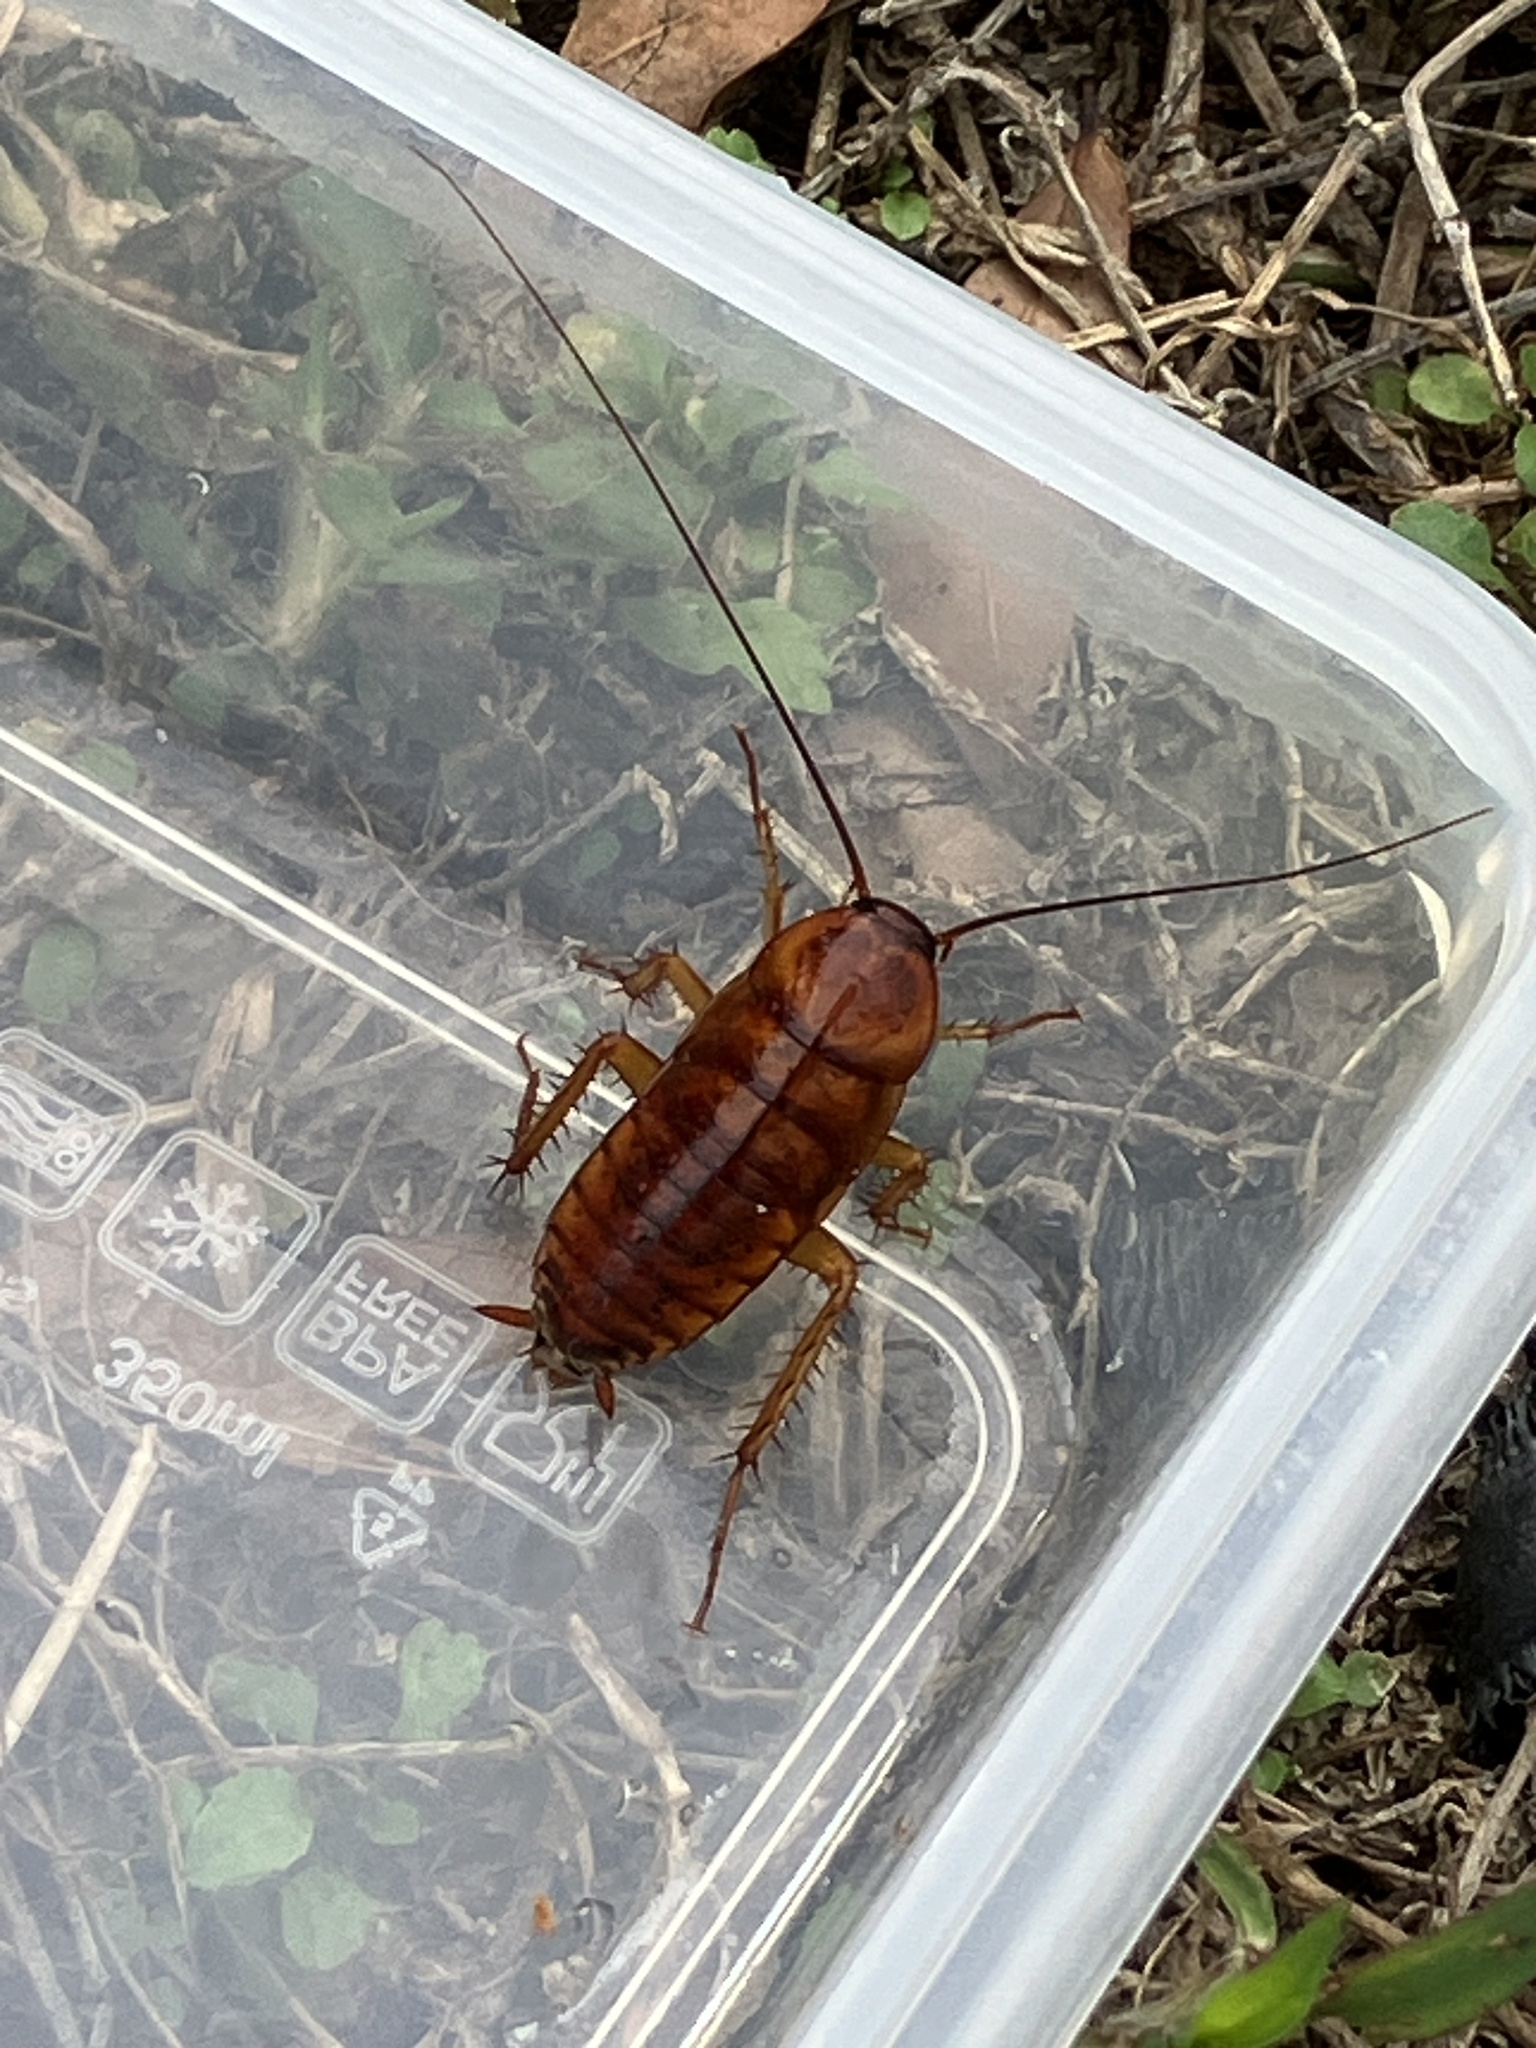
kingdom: Animalia
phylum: Arthropoda
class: Insecta
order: Blattodea
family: Blattidae
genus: Periplaneta
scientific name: Periplaneta americana
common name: American cockroach
